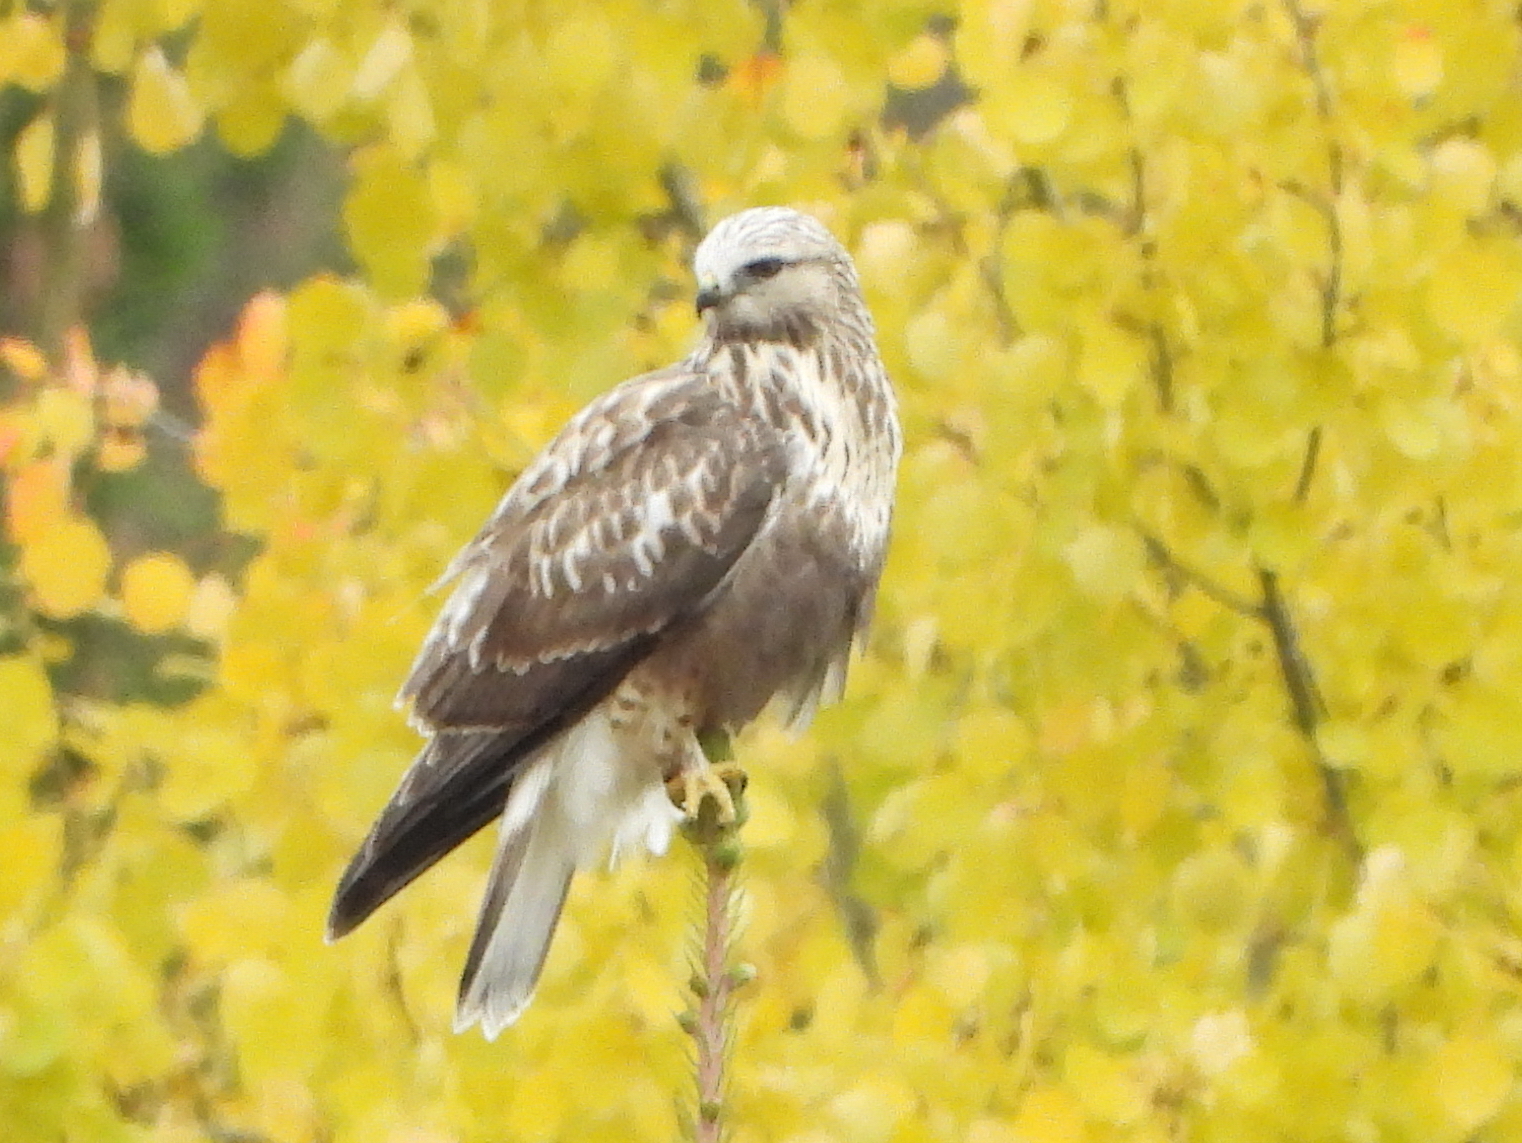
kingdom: Animalia
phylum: Chordata
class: Aves
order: Accipitriformes
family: Accipitridae
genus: Buteo
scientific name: Buteo lagopus
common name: Rough-legged buzzard
